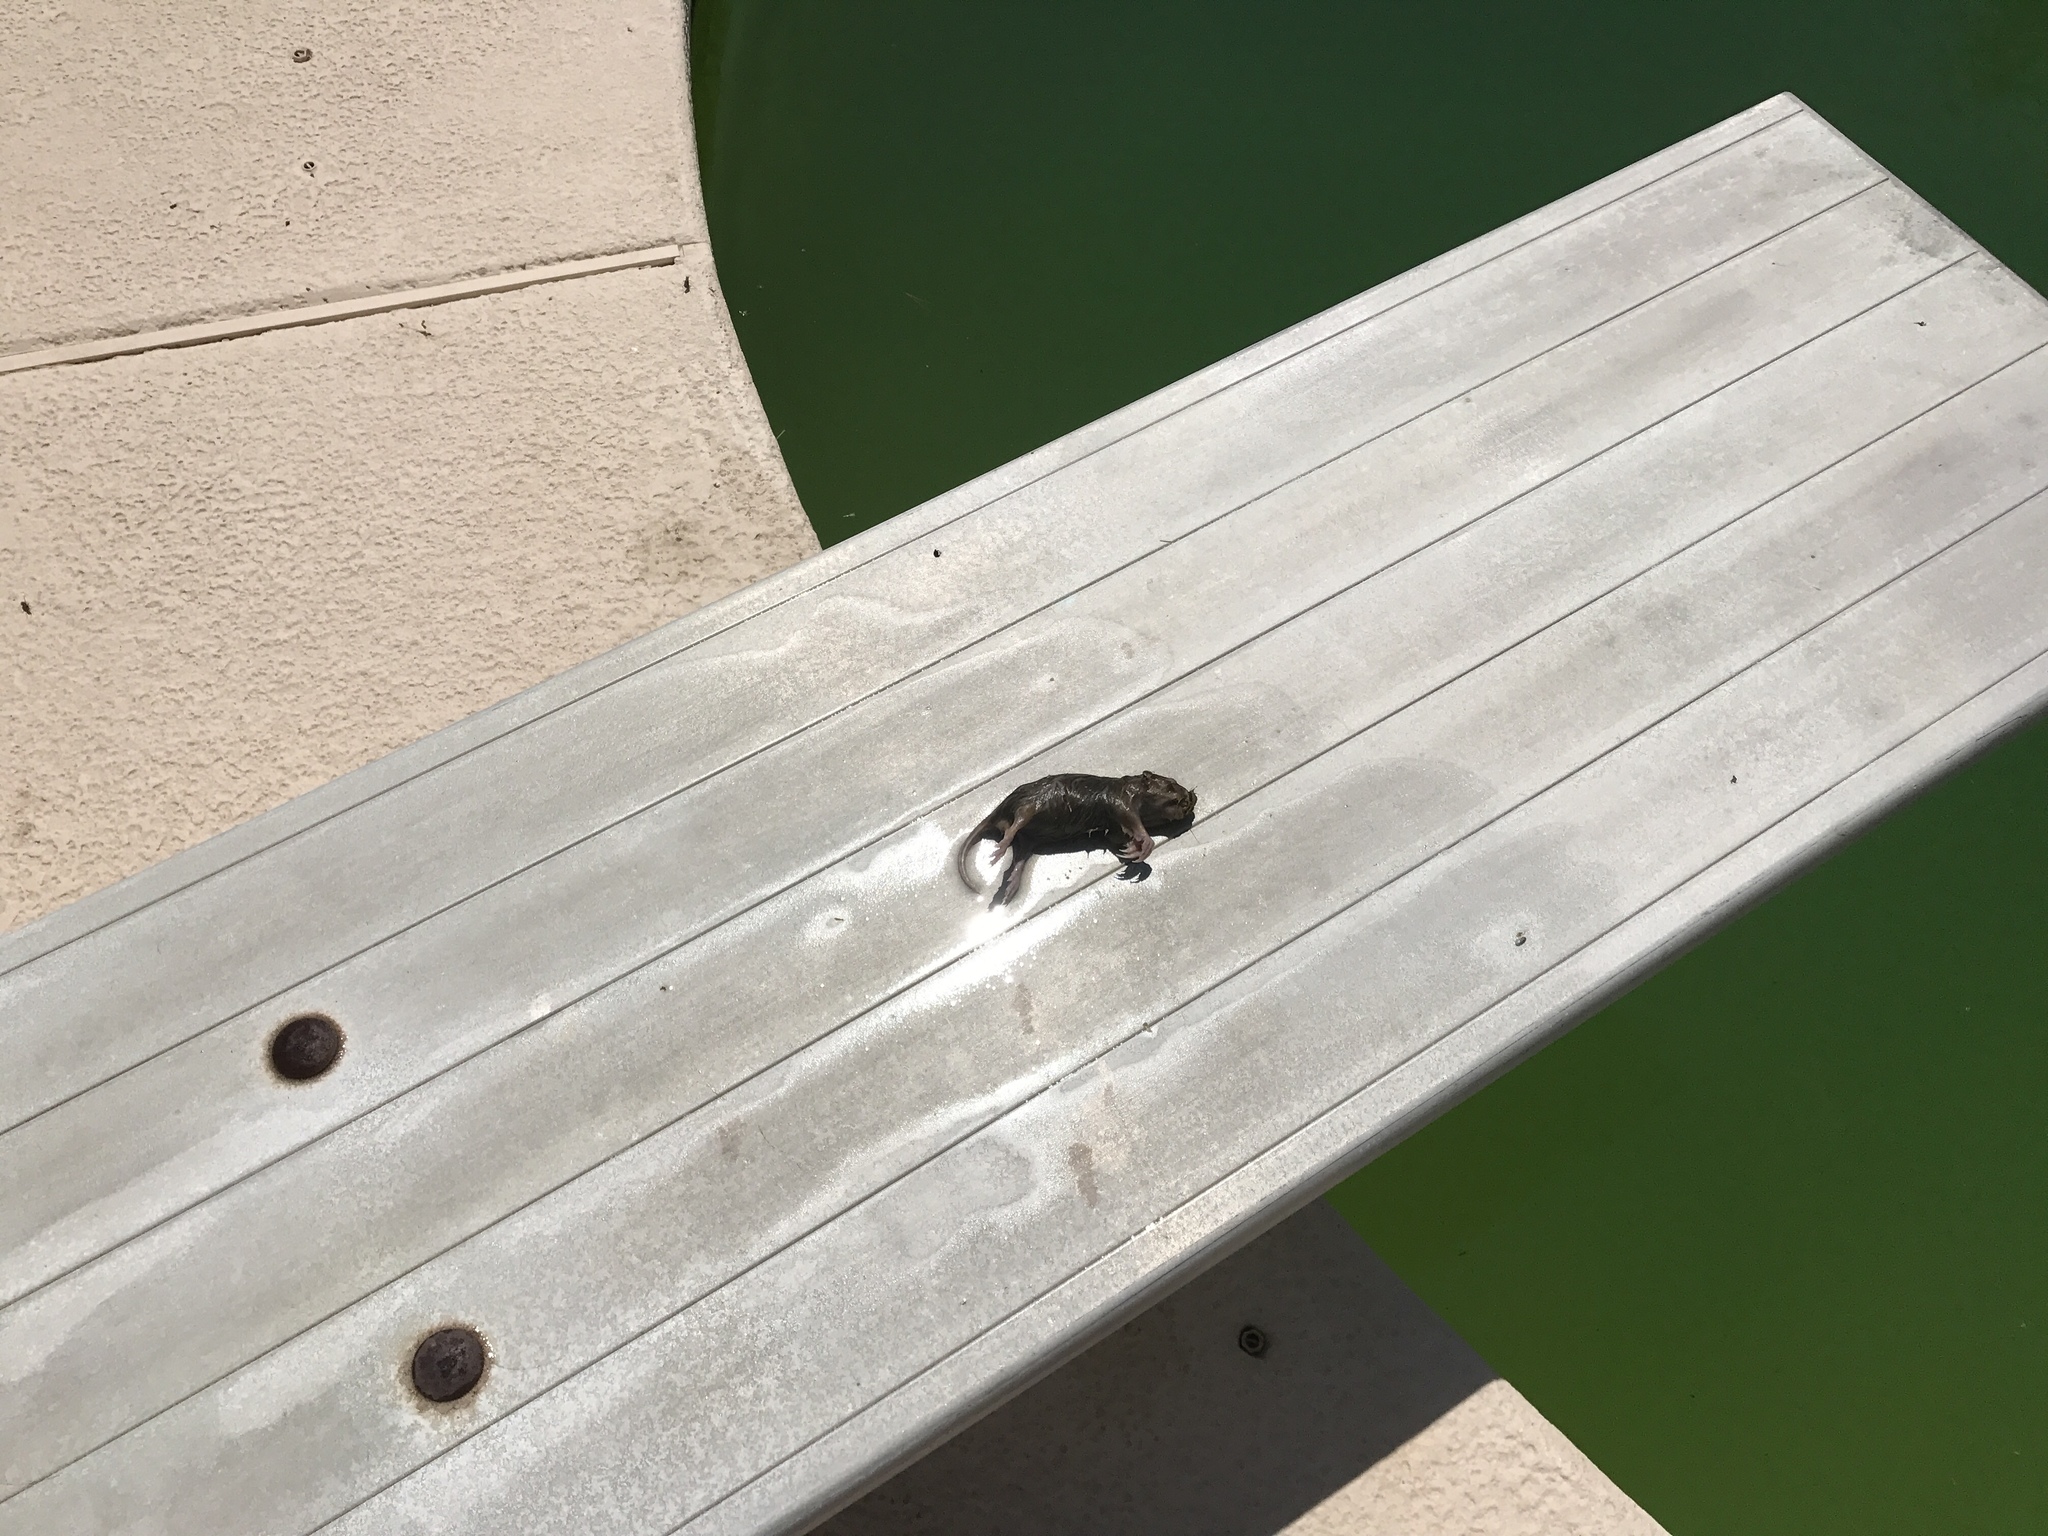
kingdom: Animalia
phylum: Chordata
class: Mammalia
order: Rodentia
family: Geomyidae
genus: Thomomys
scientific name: Thomomys bottae
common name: Botta's pocket gopher
